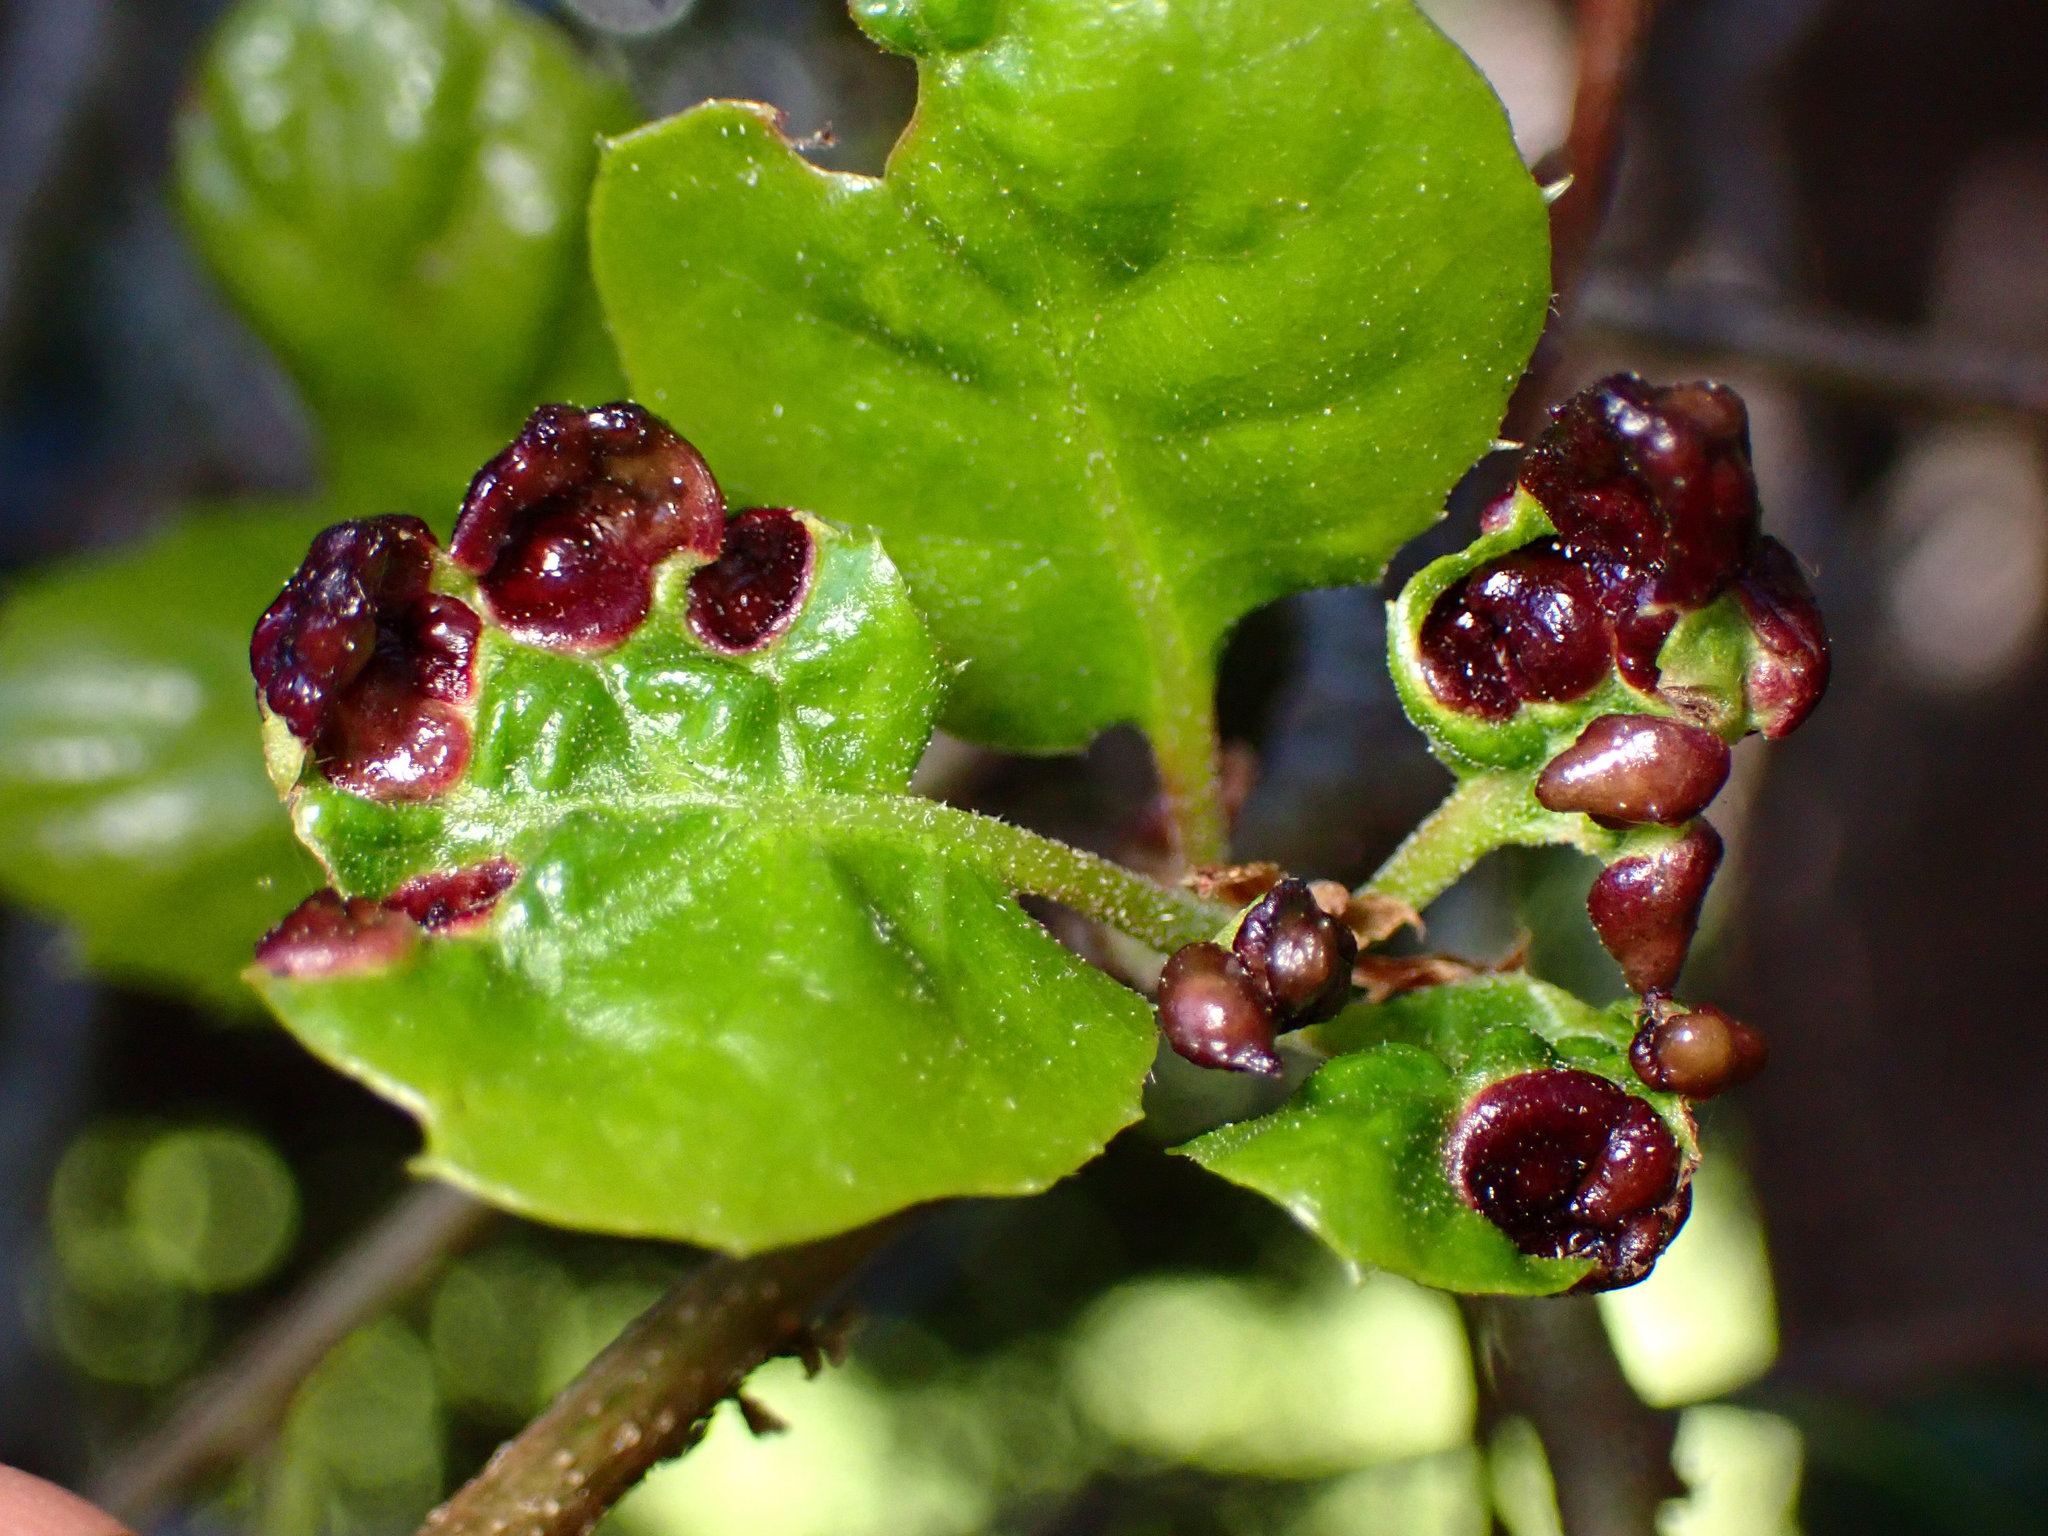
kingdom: Animalia
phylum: Arthropoda
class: Insecta
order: Hymenoptera
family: Cynipidae
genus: Dryocosmus
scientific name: Dryocosmus
